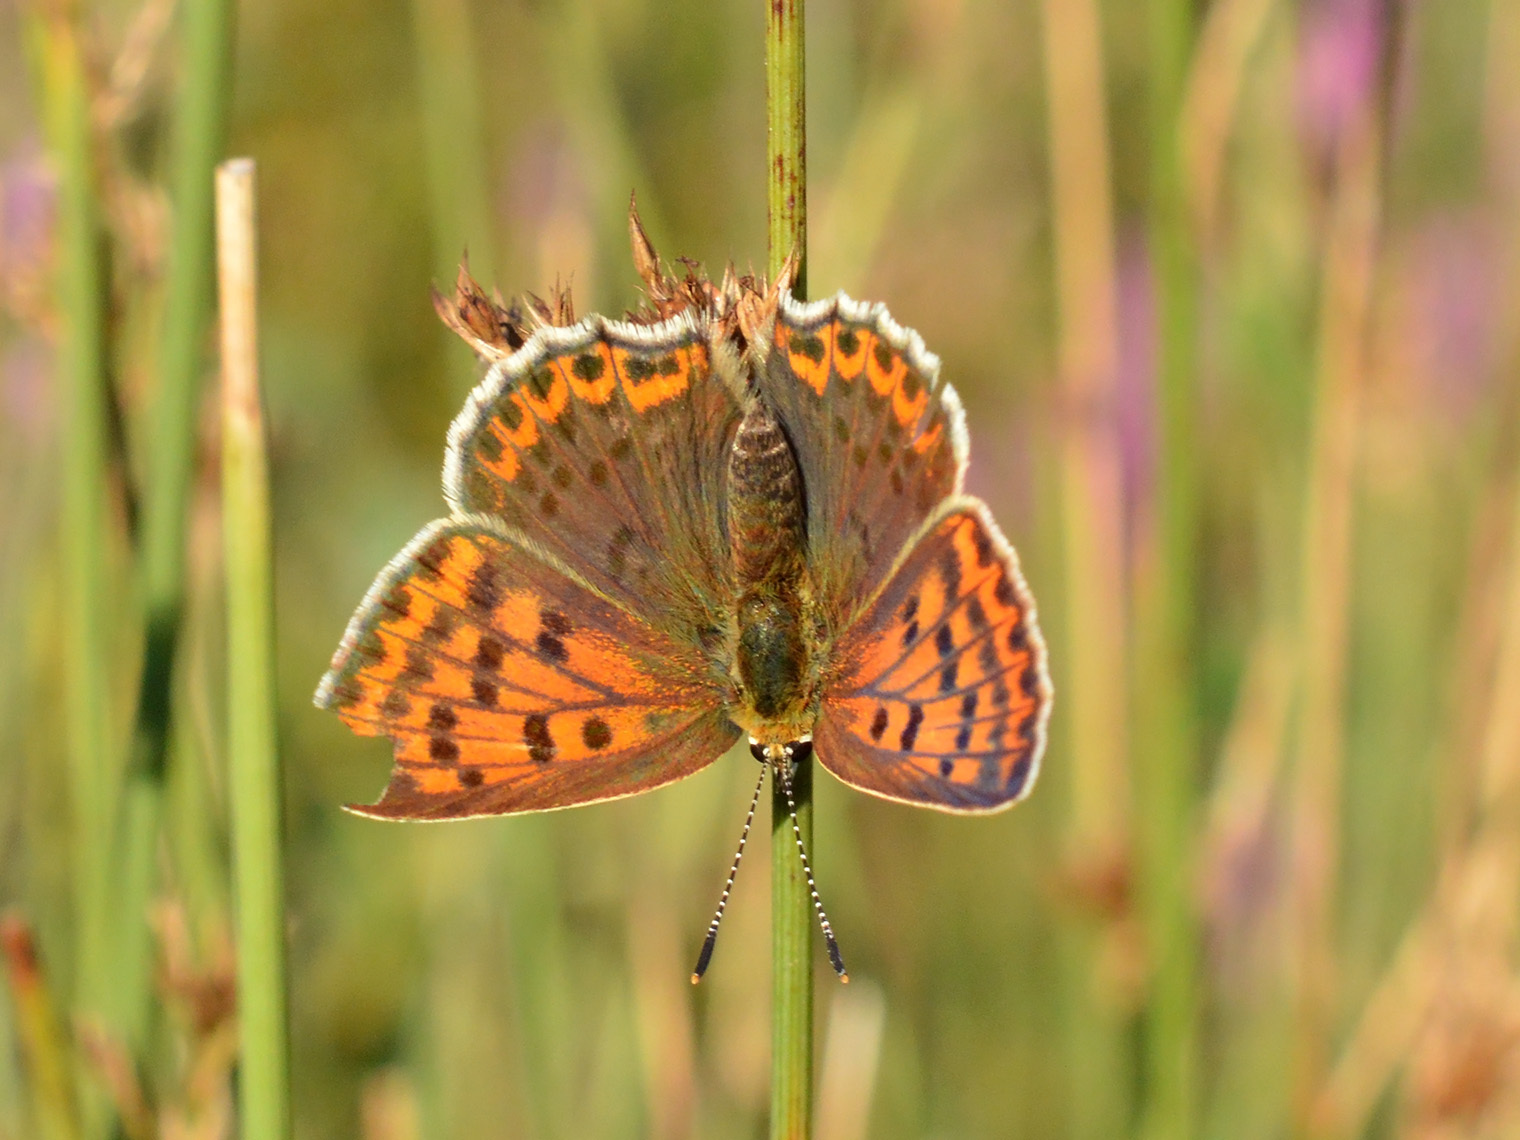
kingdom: Animalia
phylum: Arthropoda
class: Insecta
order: Lepidoptera
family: Lycaenidae
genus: Loweia
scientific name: Loweia tityrus
